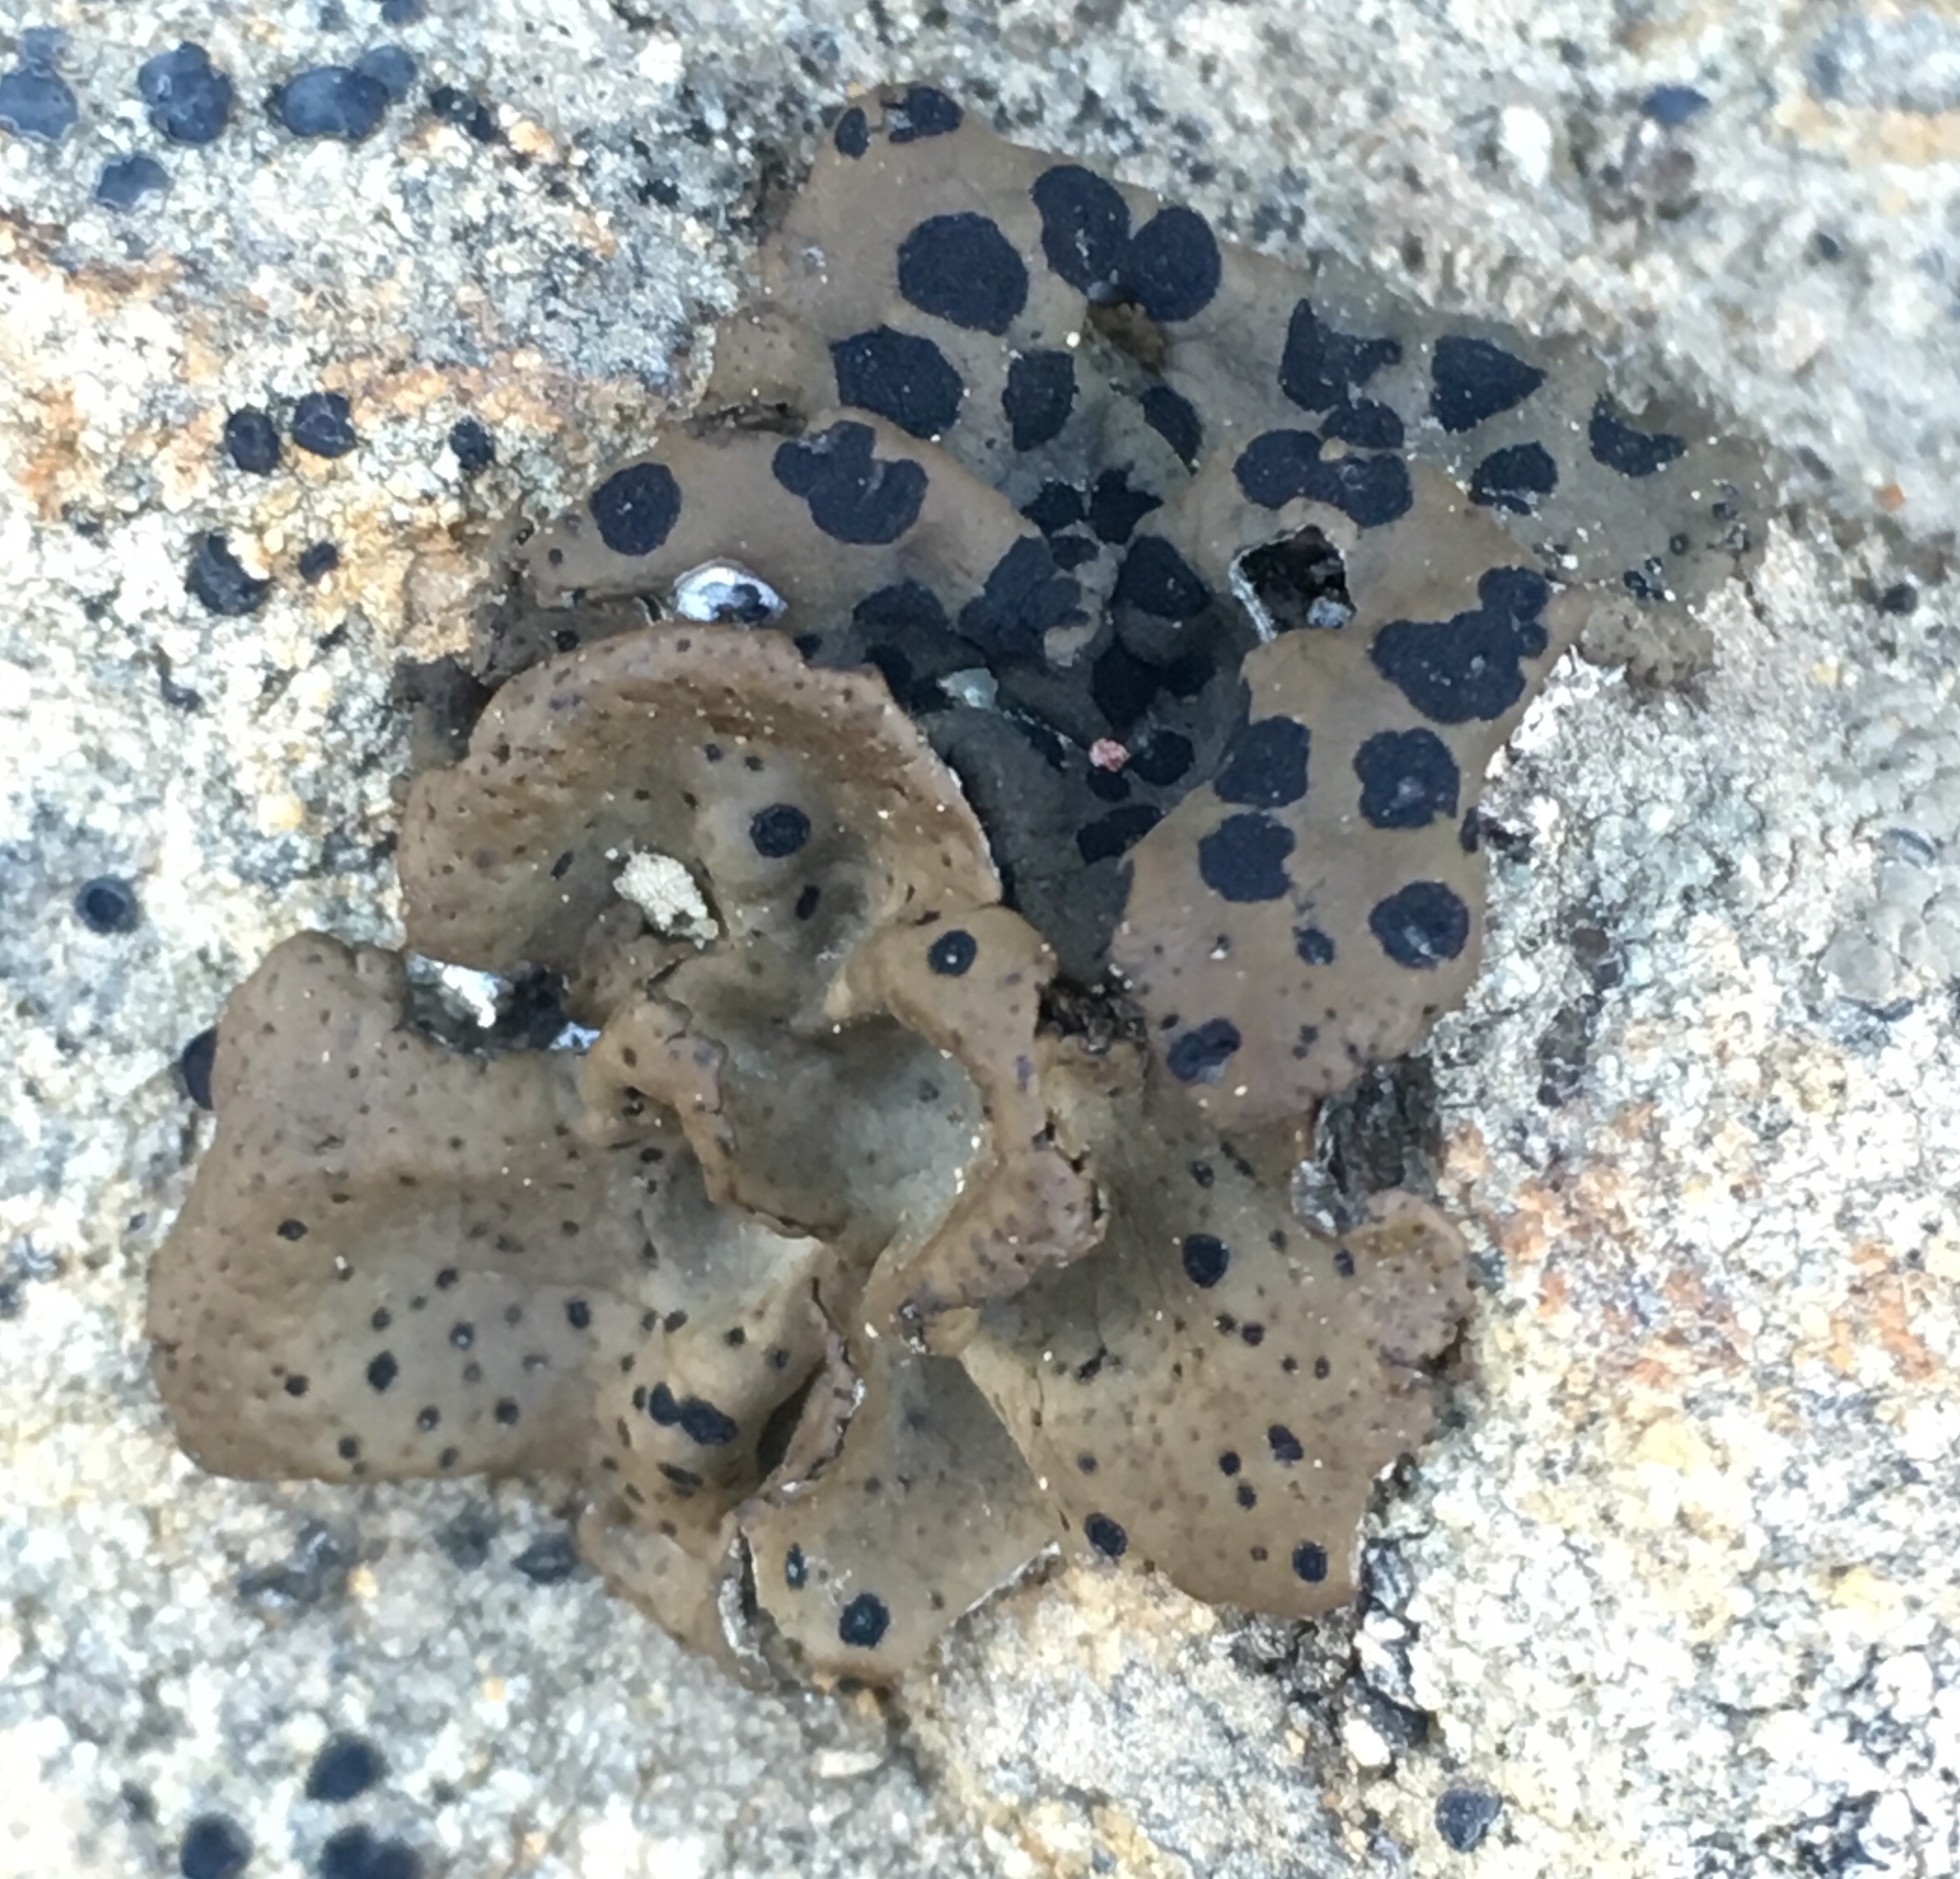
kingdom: Fungi
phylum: Ascomycota
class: Lecanoromycetes
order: Umbilicariales
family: Umbilicariaceae
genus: Umbilicaria
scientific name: Umbilicaria phaea
